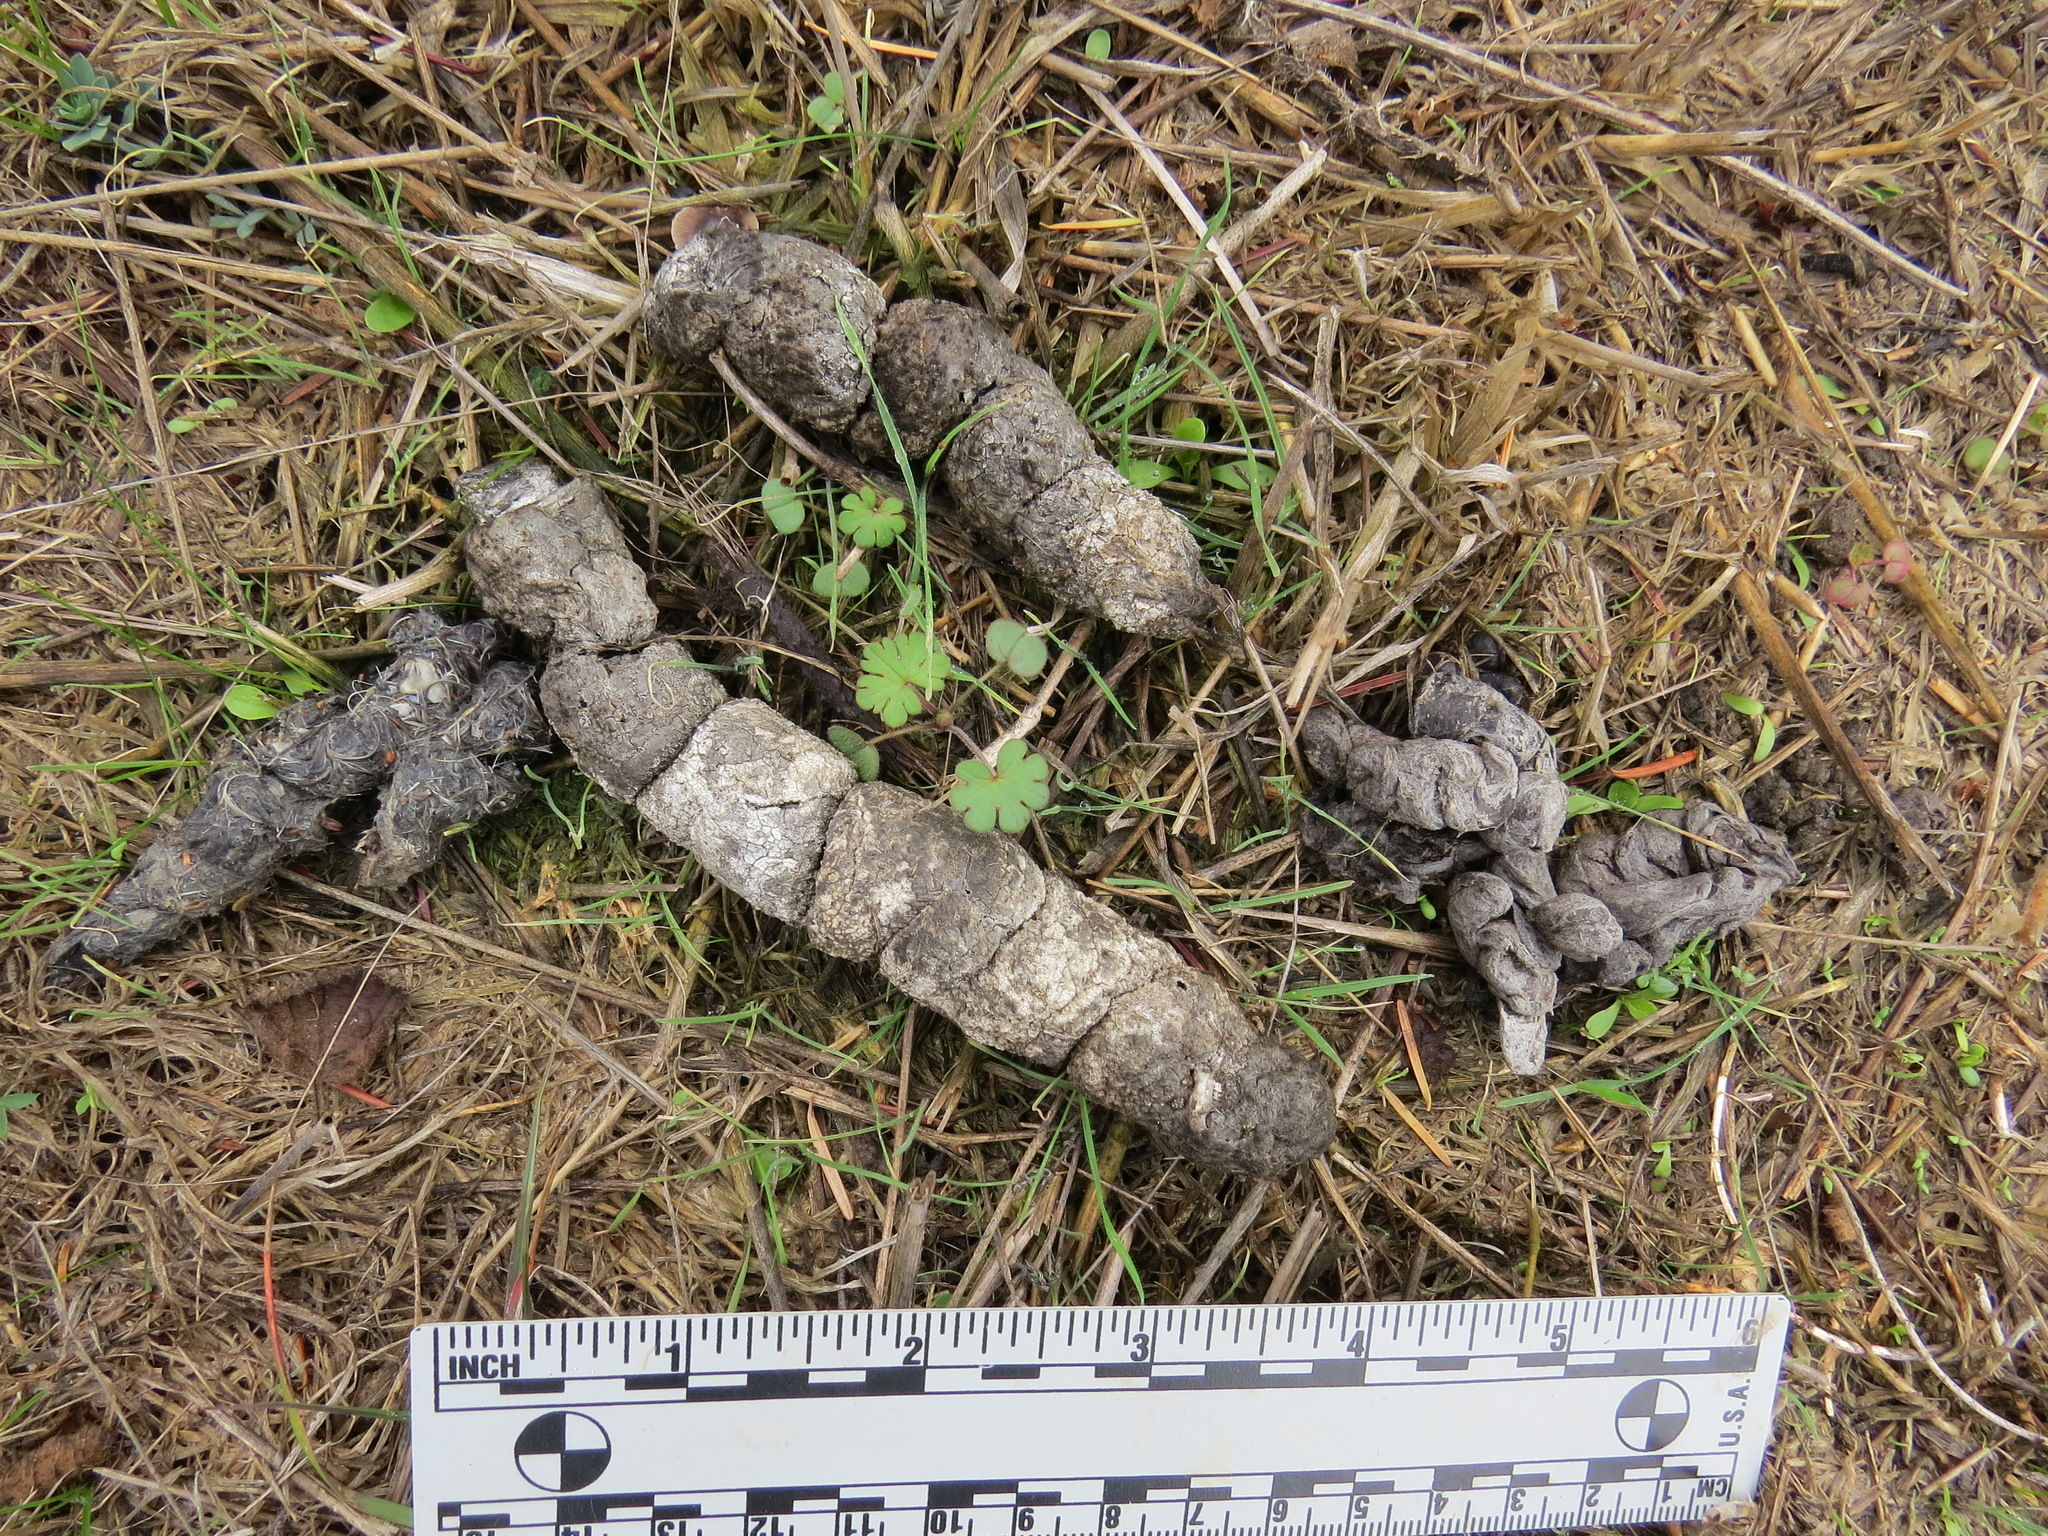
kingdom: Animalia
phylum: Chordata
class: Mammalia
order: Carnivora
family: Canidae
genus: Canis
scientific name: Canis latrans
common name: Coyote
